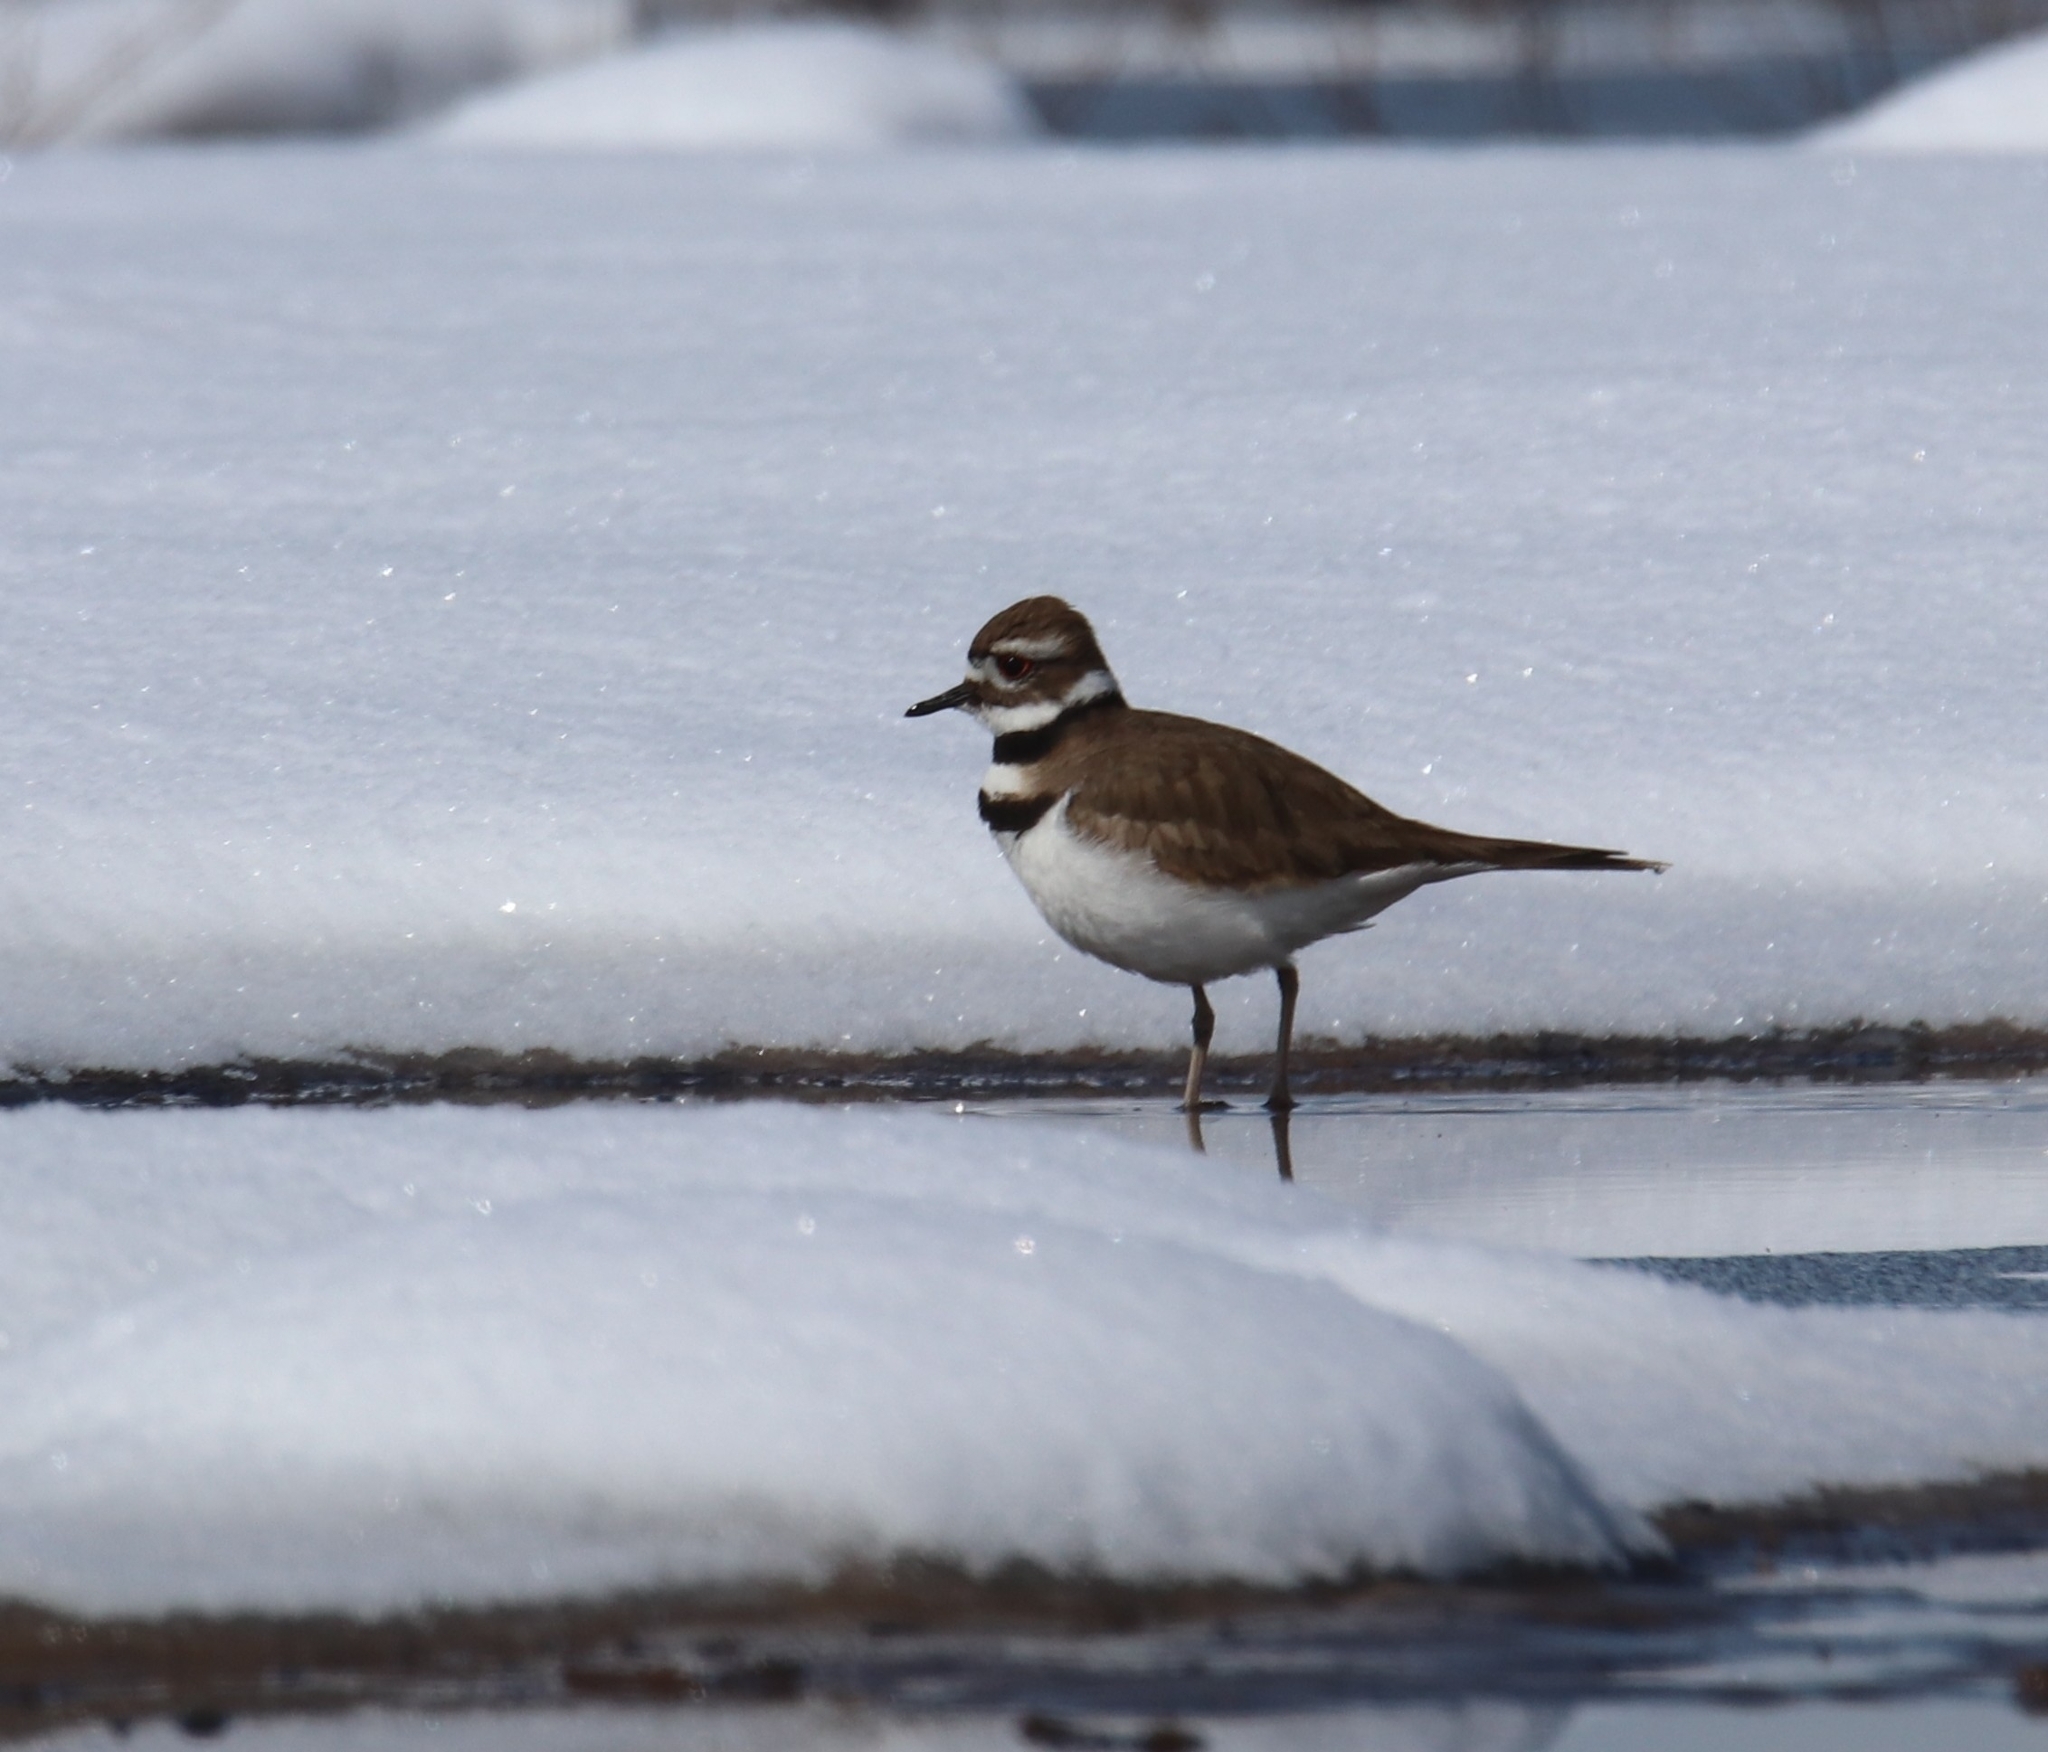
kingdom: Animalia
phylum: Chordata
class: Aves
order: Charadriiformes
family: Charadriidae
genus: Charadrius
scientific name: Charadrius vociferus
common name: Killdeer
